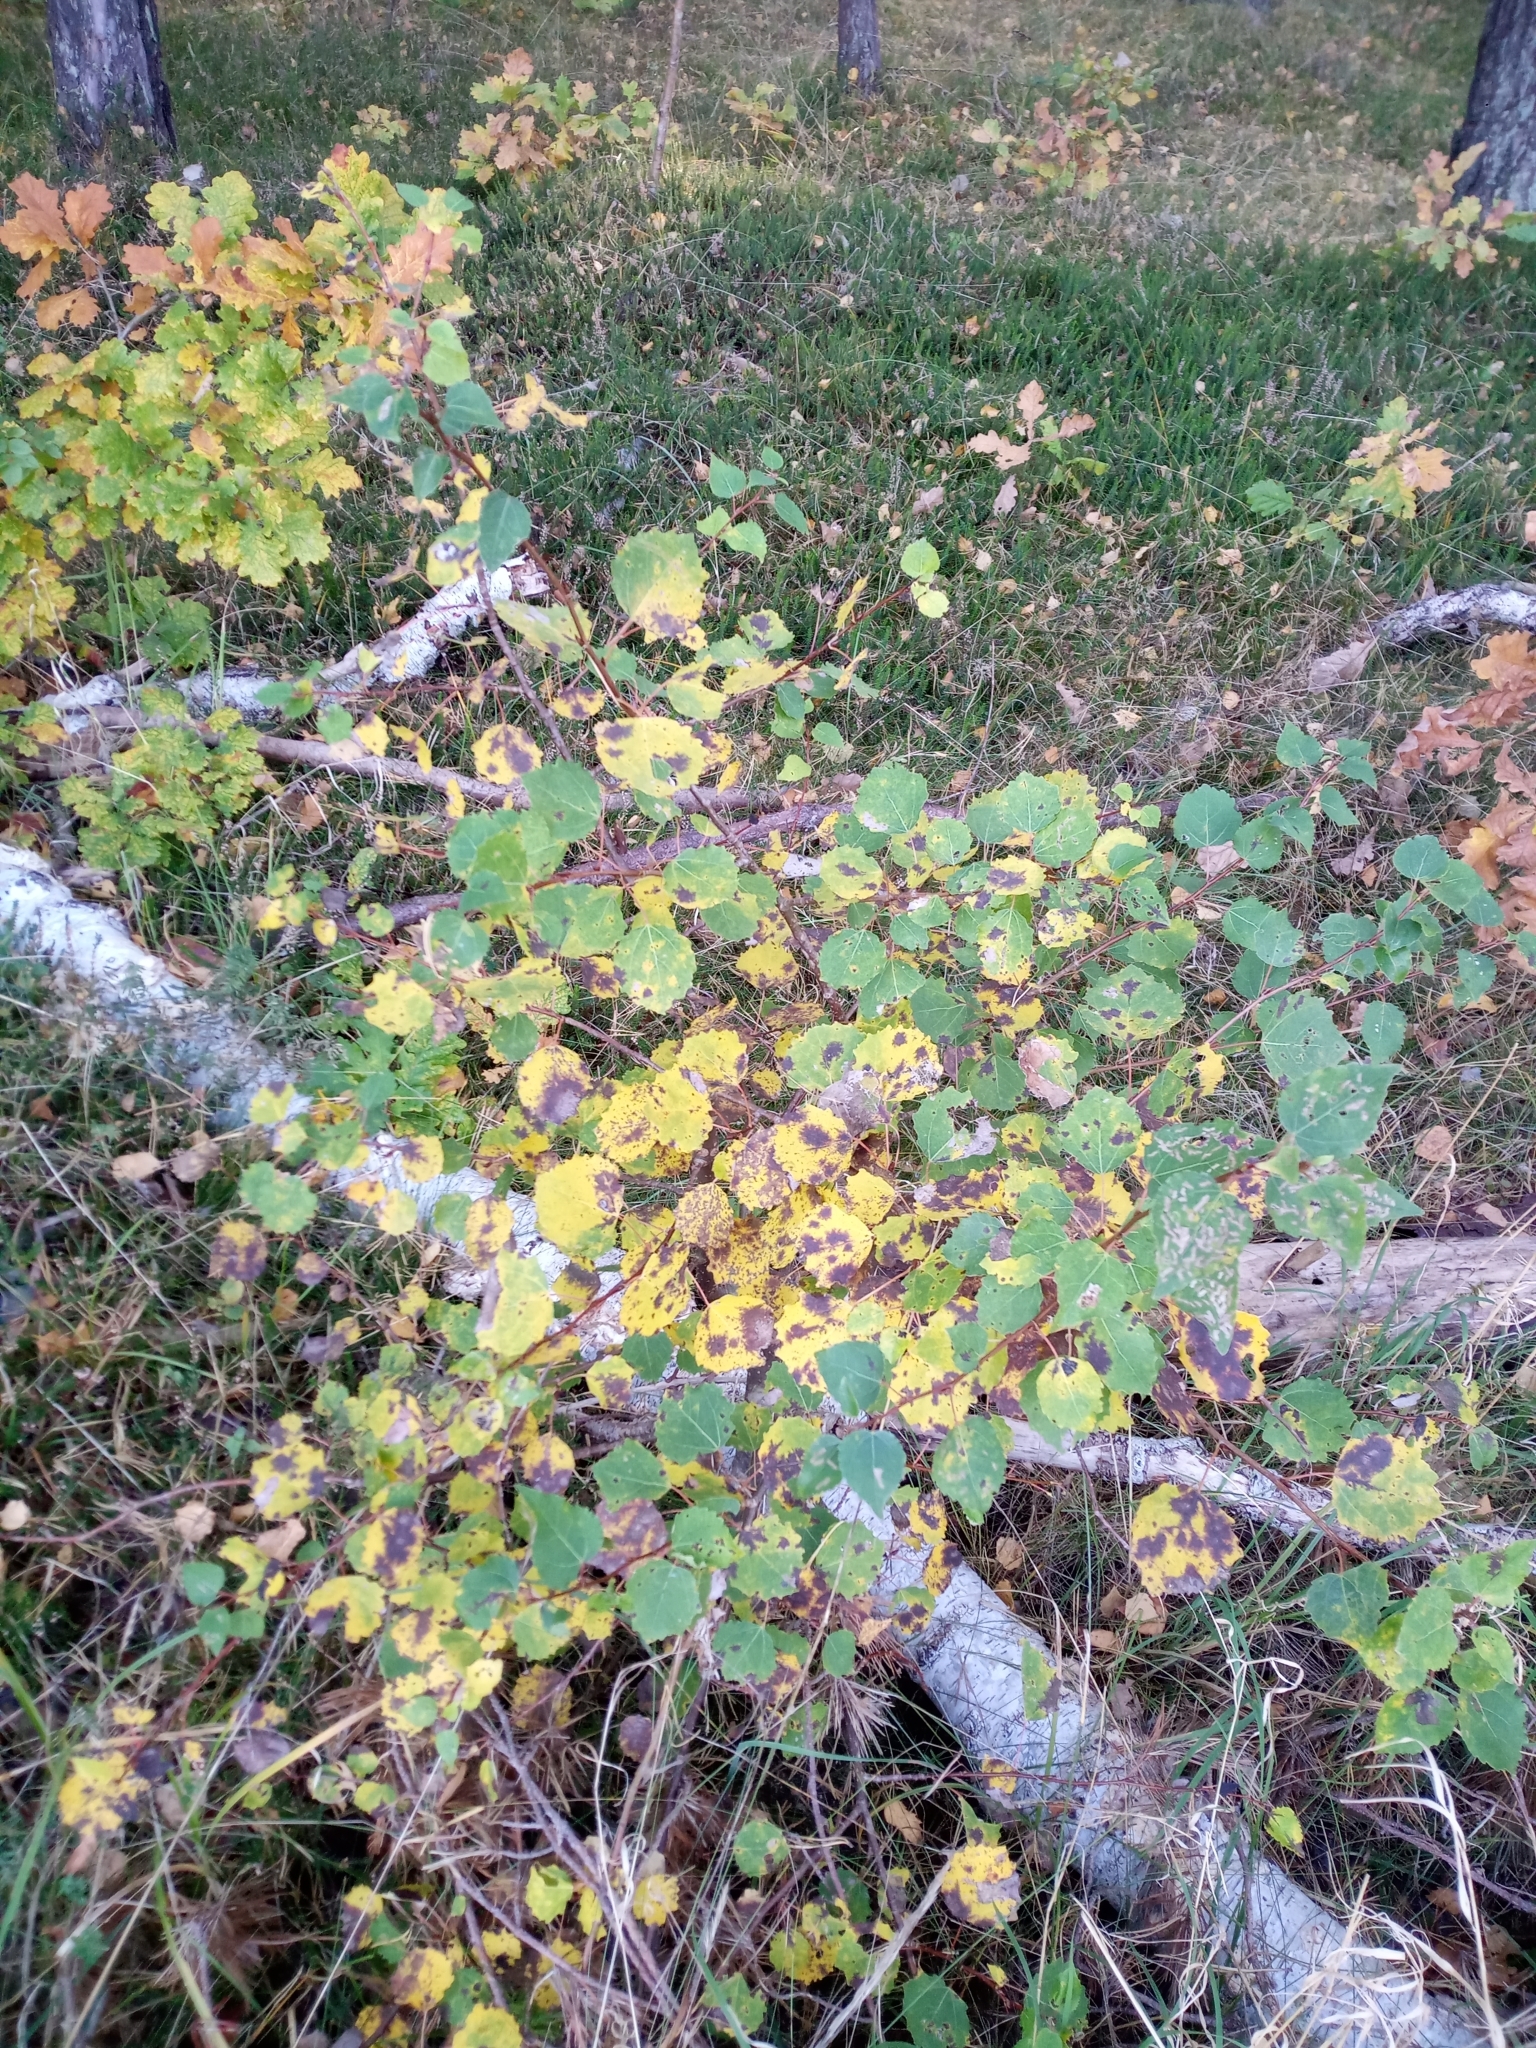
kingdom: Plantae
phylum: Tracheophyta
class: Magnoliopsida
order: Malpighiales
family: Salicaceae
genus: Populus
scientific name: Populus tremula
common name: European aspen
